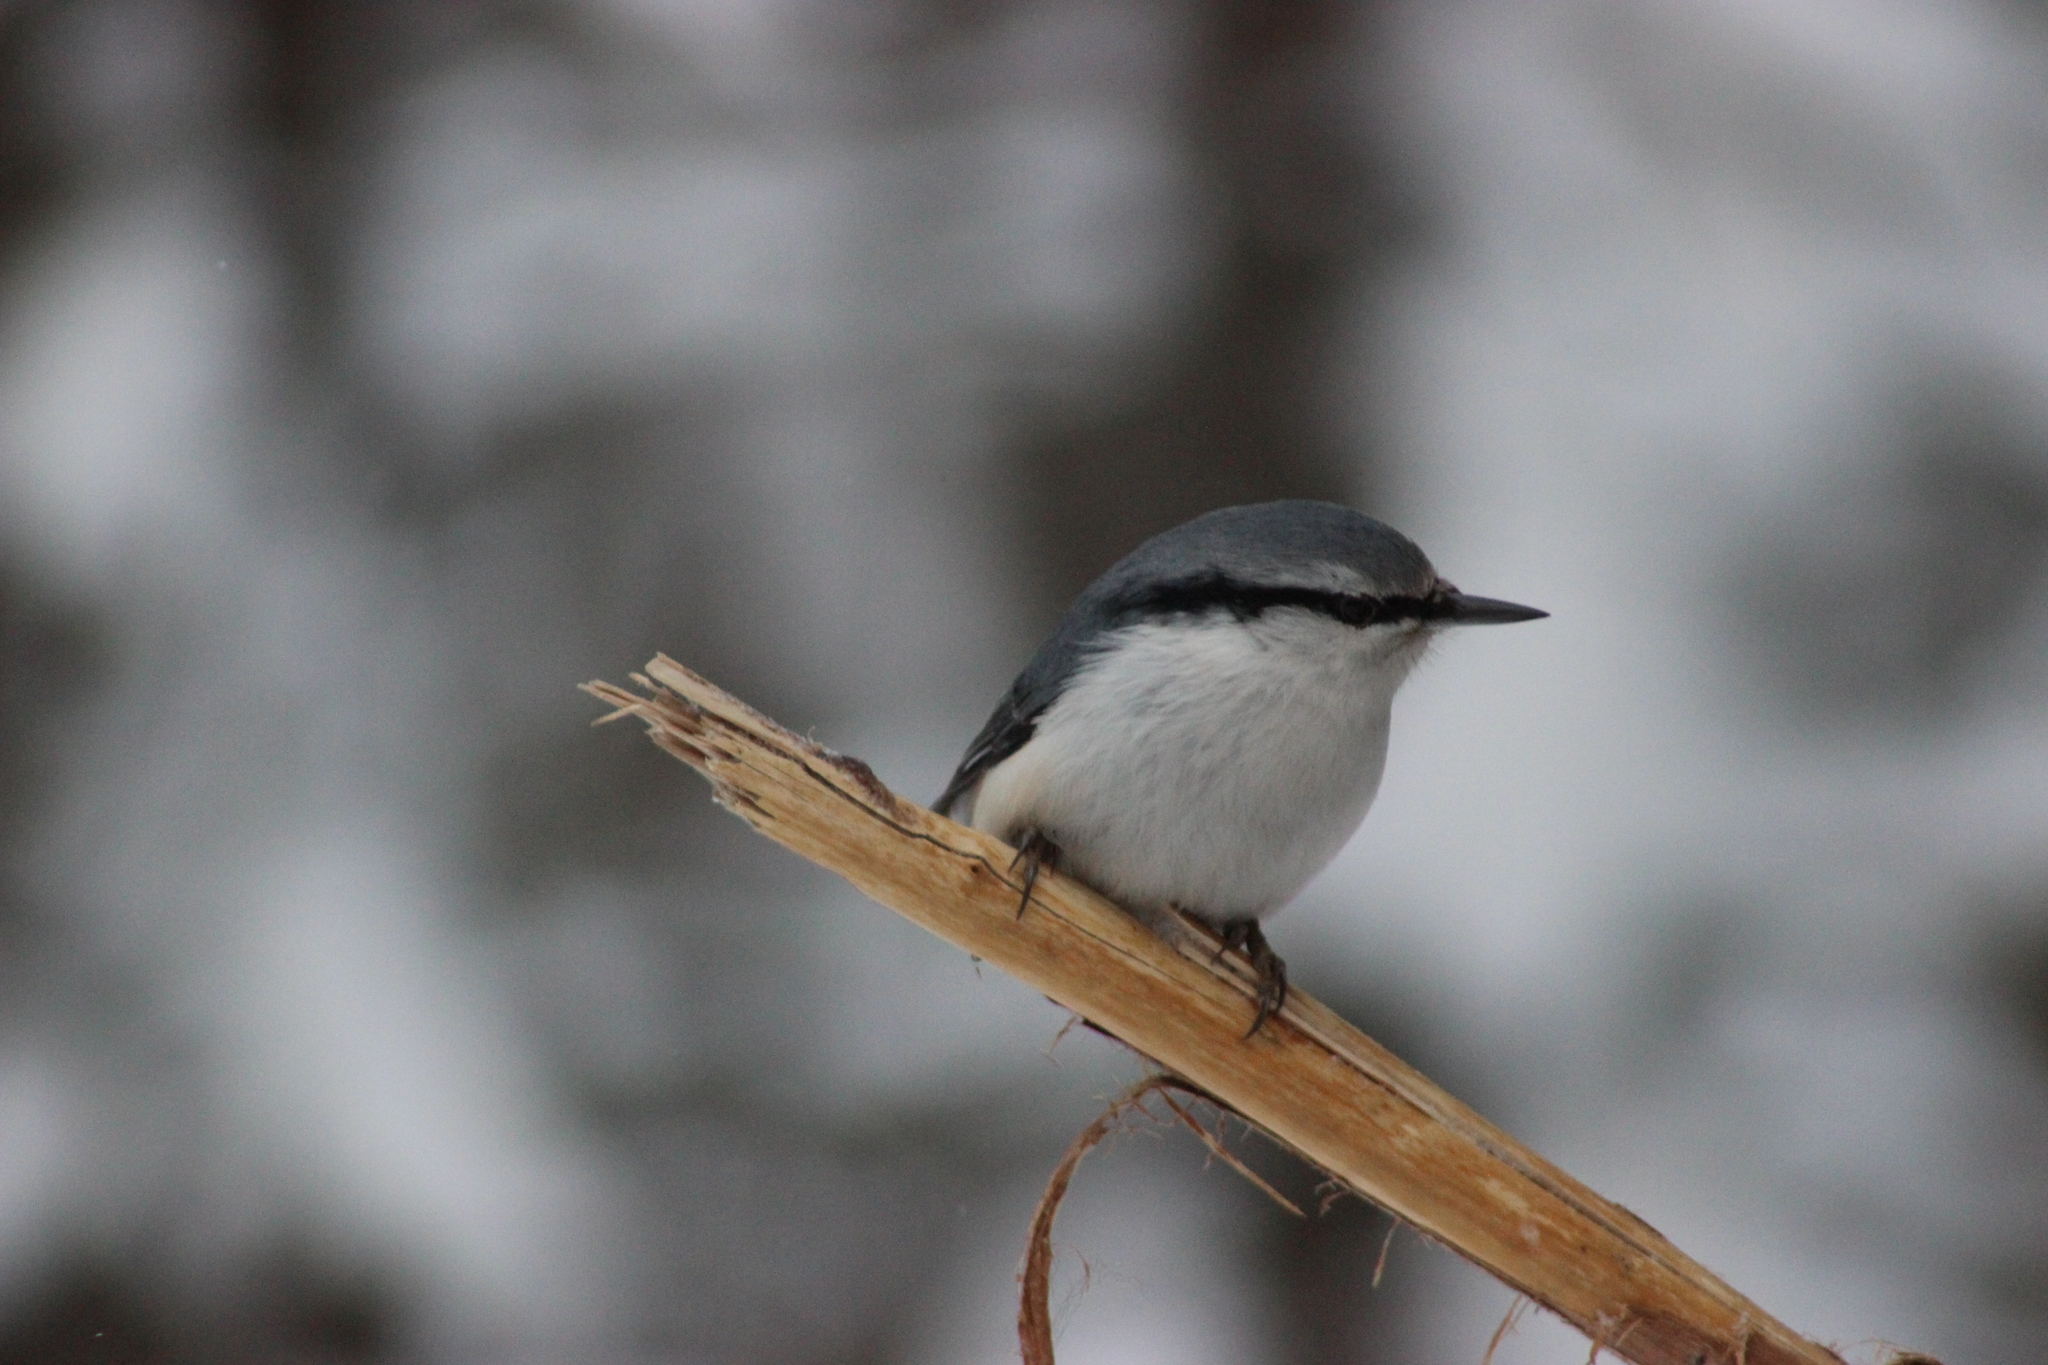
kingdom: Animalia
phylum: Chordata
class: Aves
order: Passeriformes
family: Sittidae
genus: Sitta
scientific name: Sitta europaea
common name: Eurasian nuthatch
